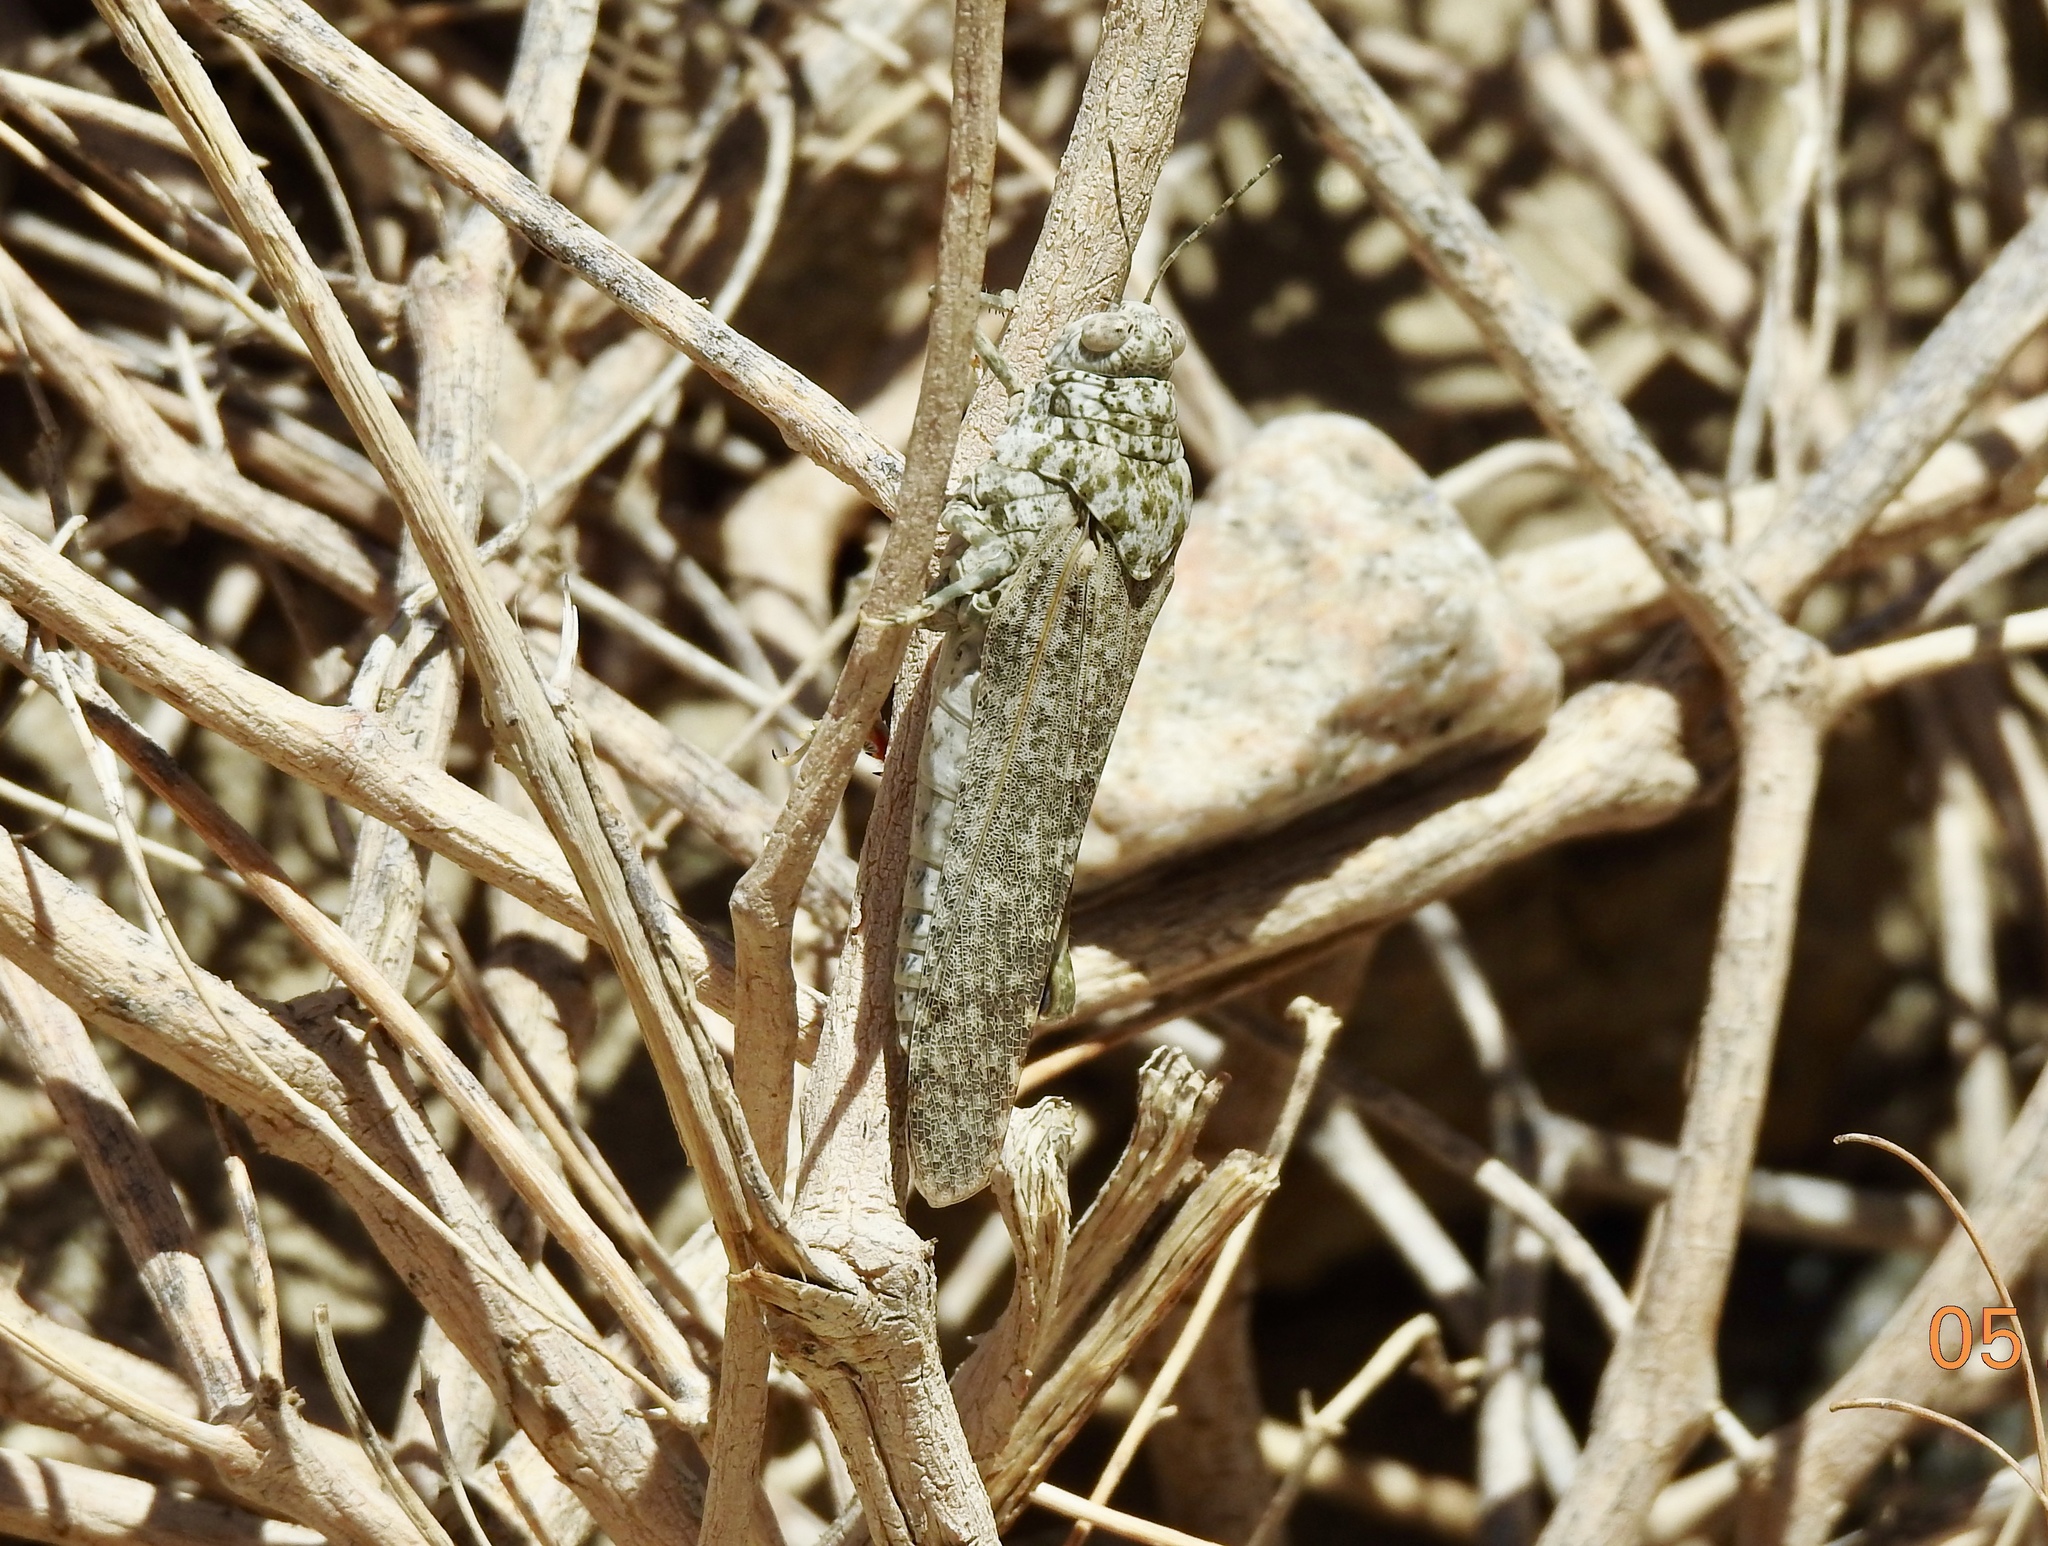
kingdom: Animalia
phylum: Arthropoda
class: Insecta
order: Orthoptera
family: Romaleidae
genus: Tytthotyle
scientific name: Tytthotyle maculata
